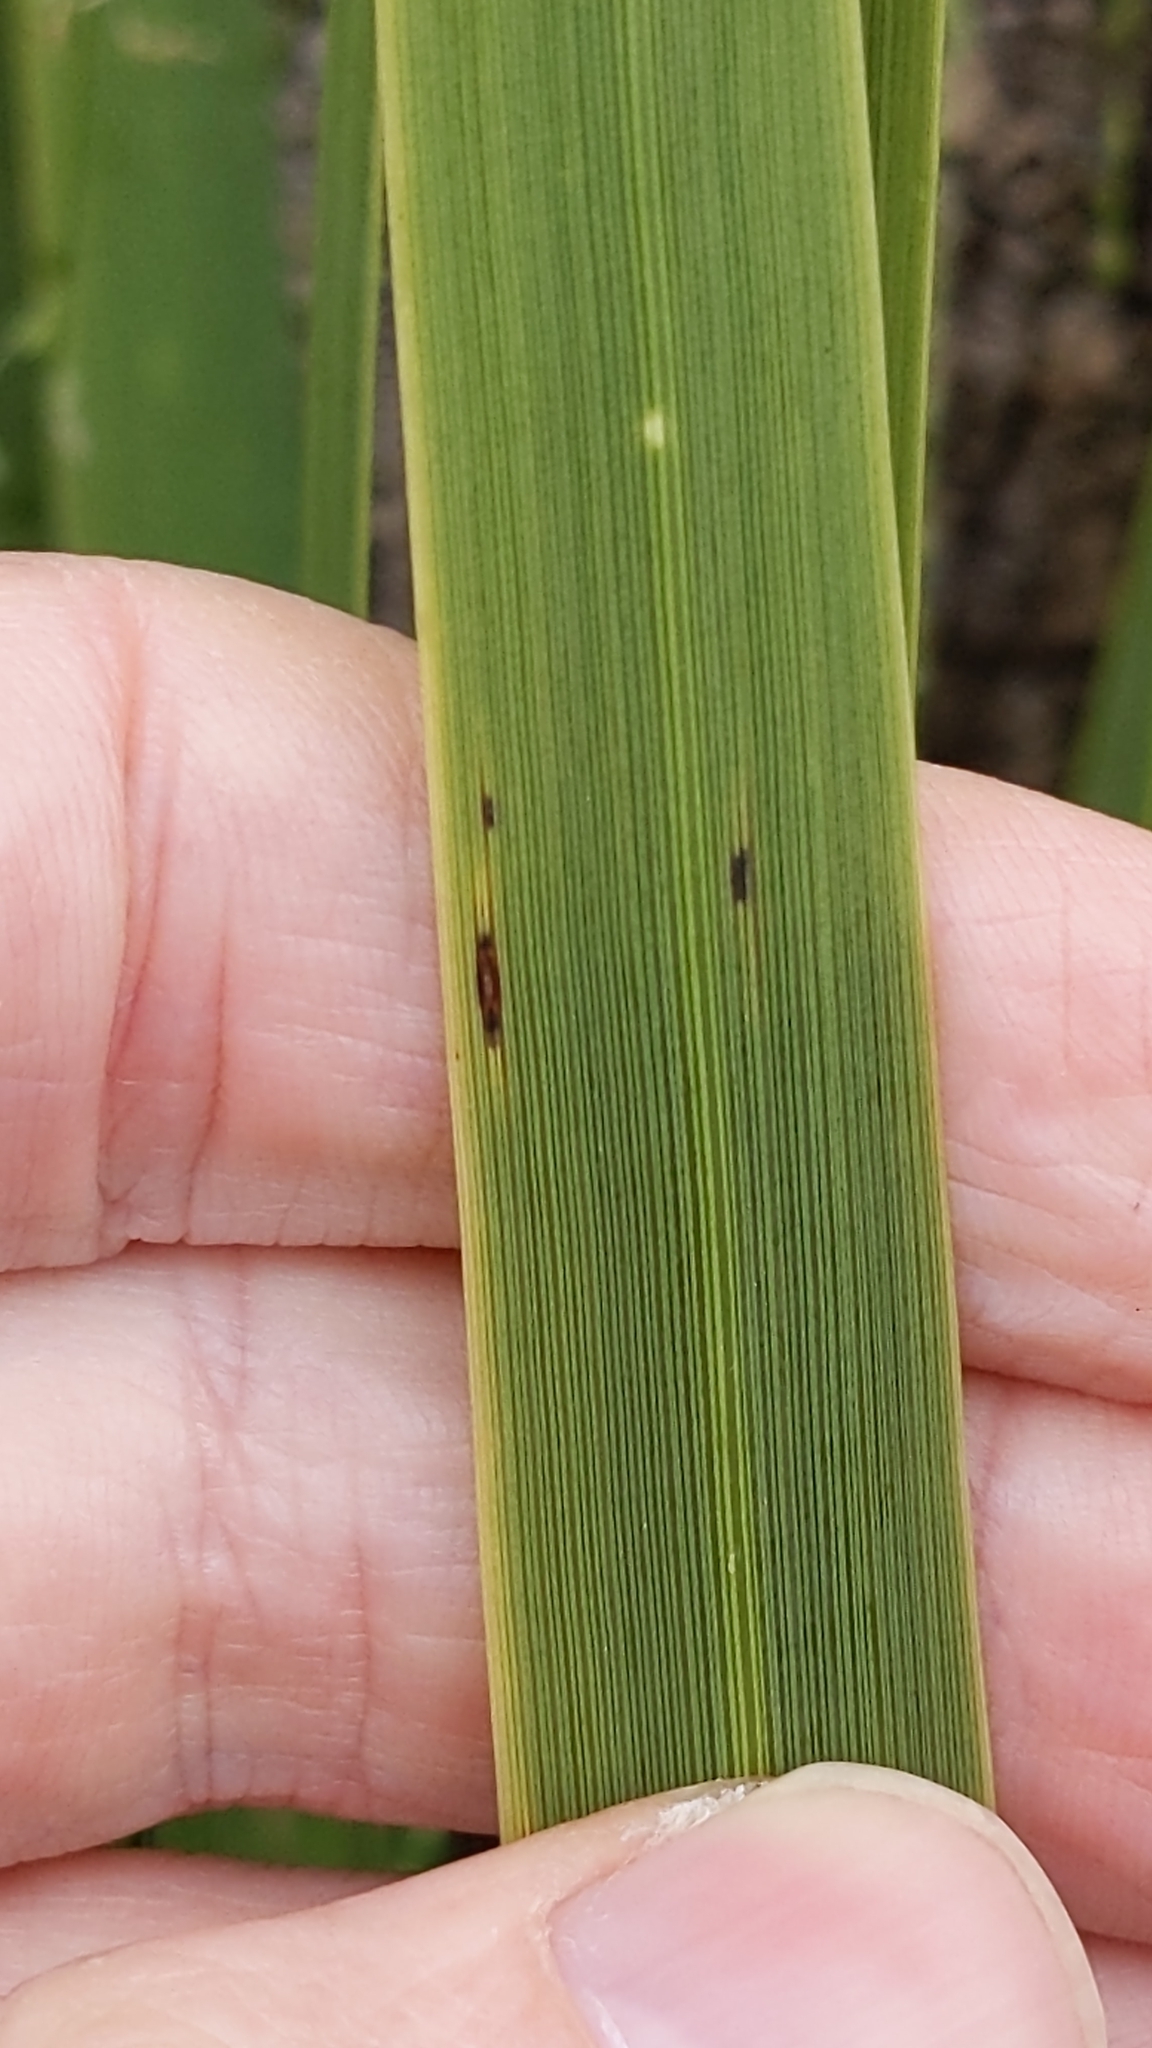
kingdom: Plantae
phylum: Tracheophyta
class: Liliopsida
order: Asparagales
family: Asparagaceae
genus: Cordyline
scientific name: Cordyline australis
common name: Cabbage-palm
